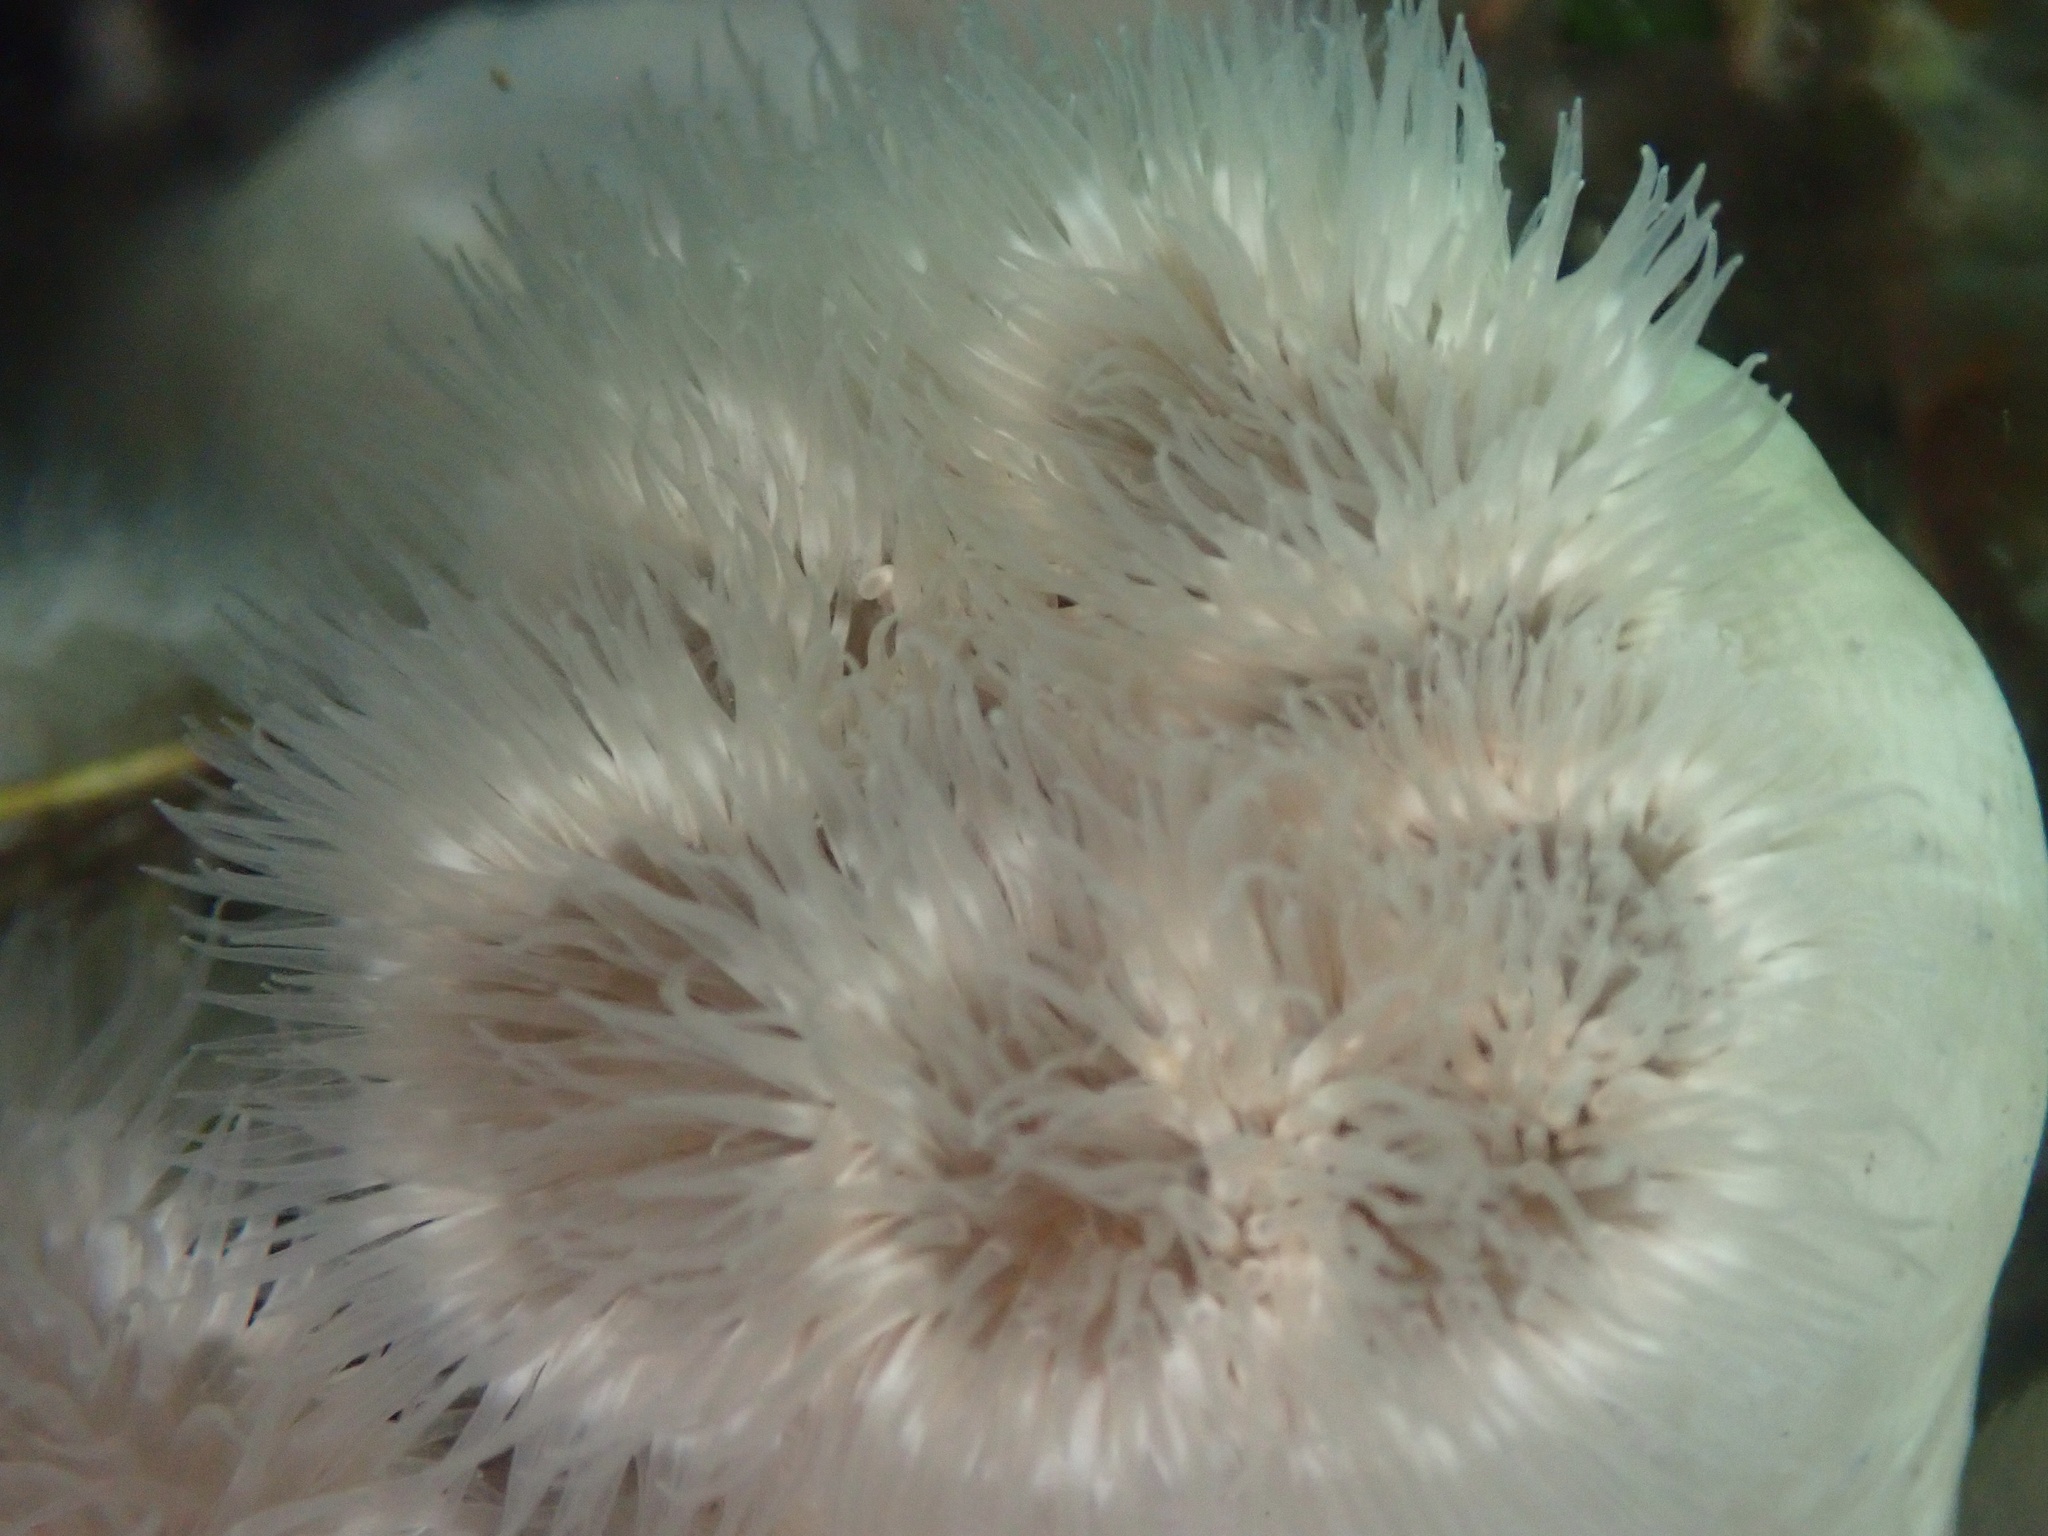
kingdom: Animalia
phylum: Cnidaria
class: Anthozoa
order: Actiniaria
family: Metridiidae
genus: Metridium
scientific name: Metridium senile
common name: Clonal plumose anemone
